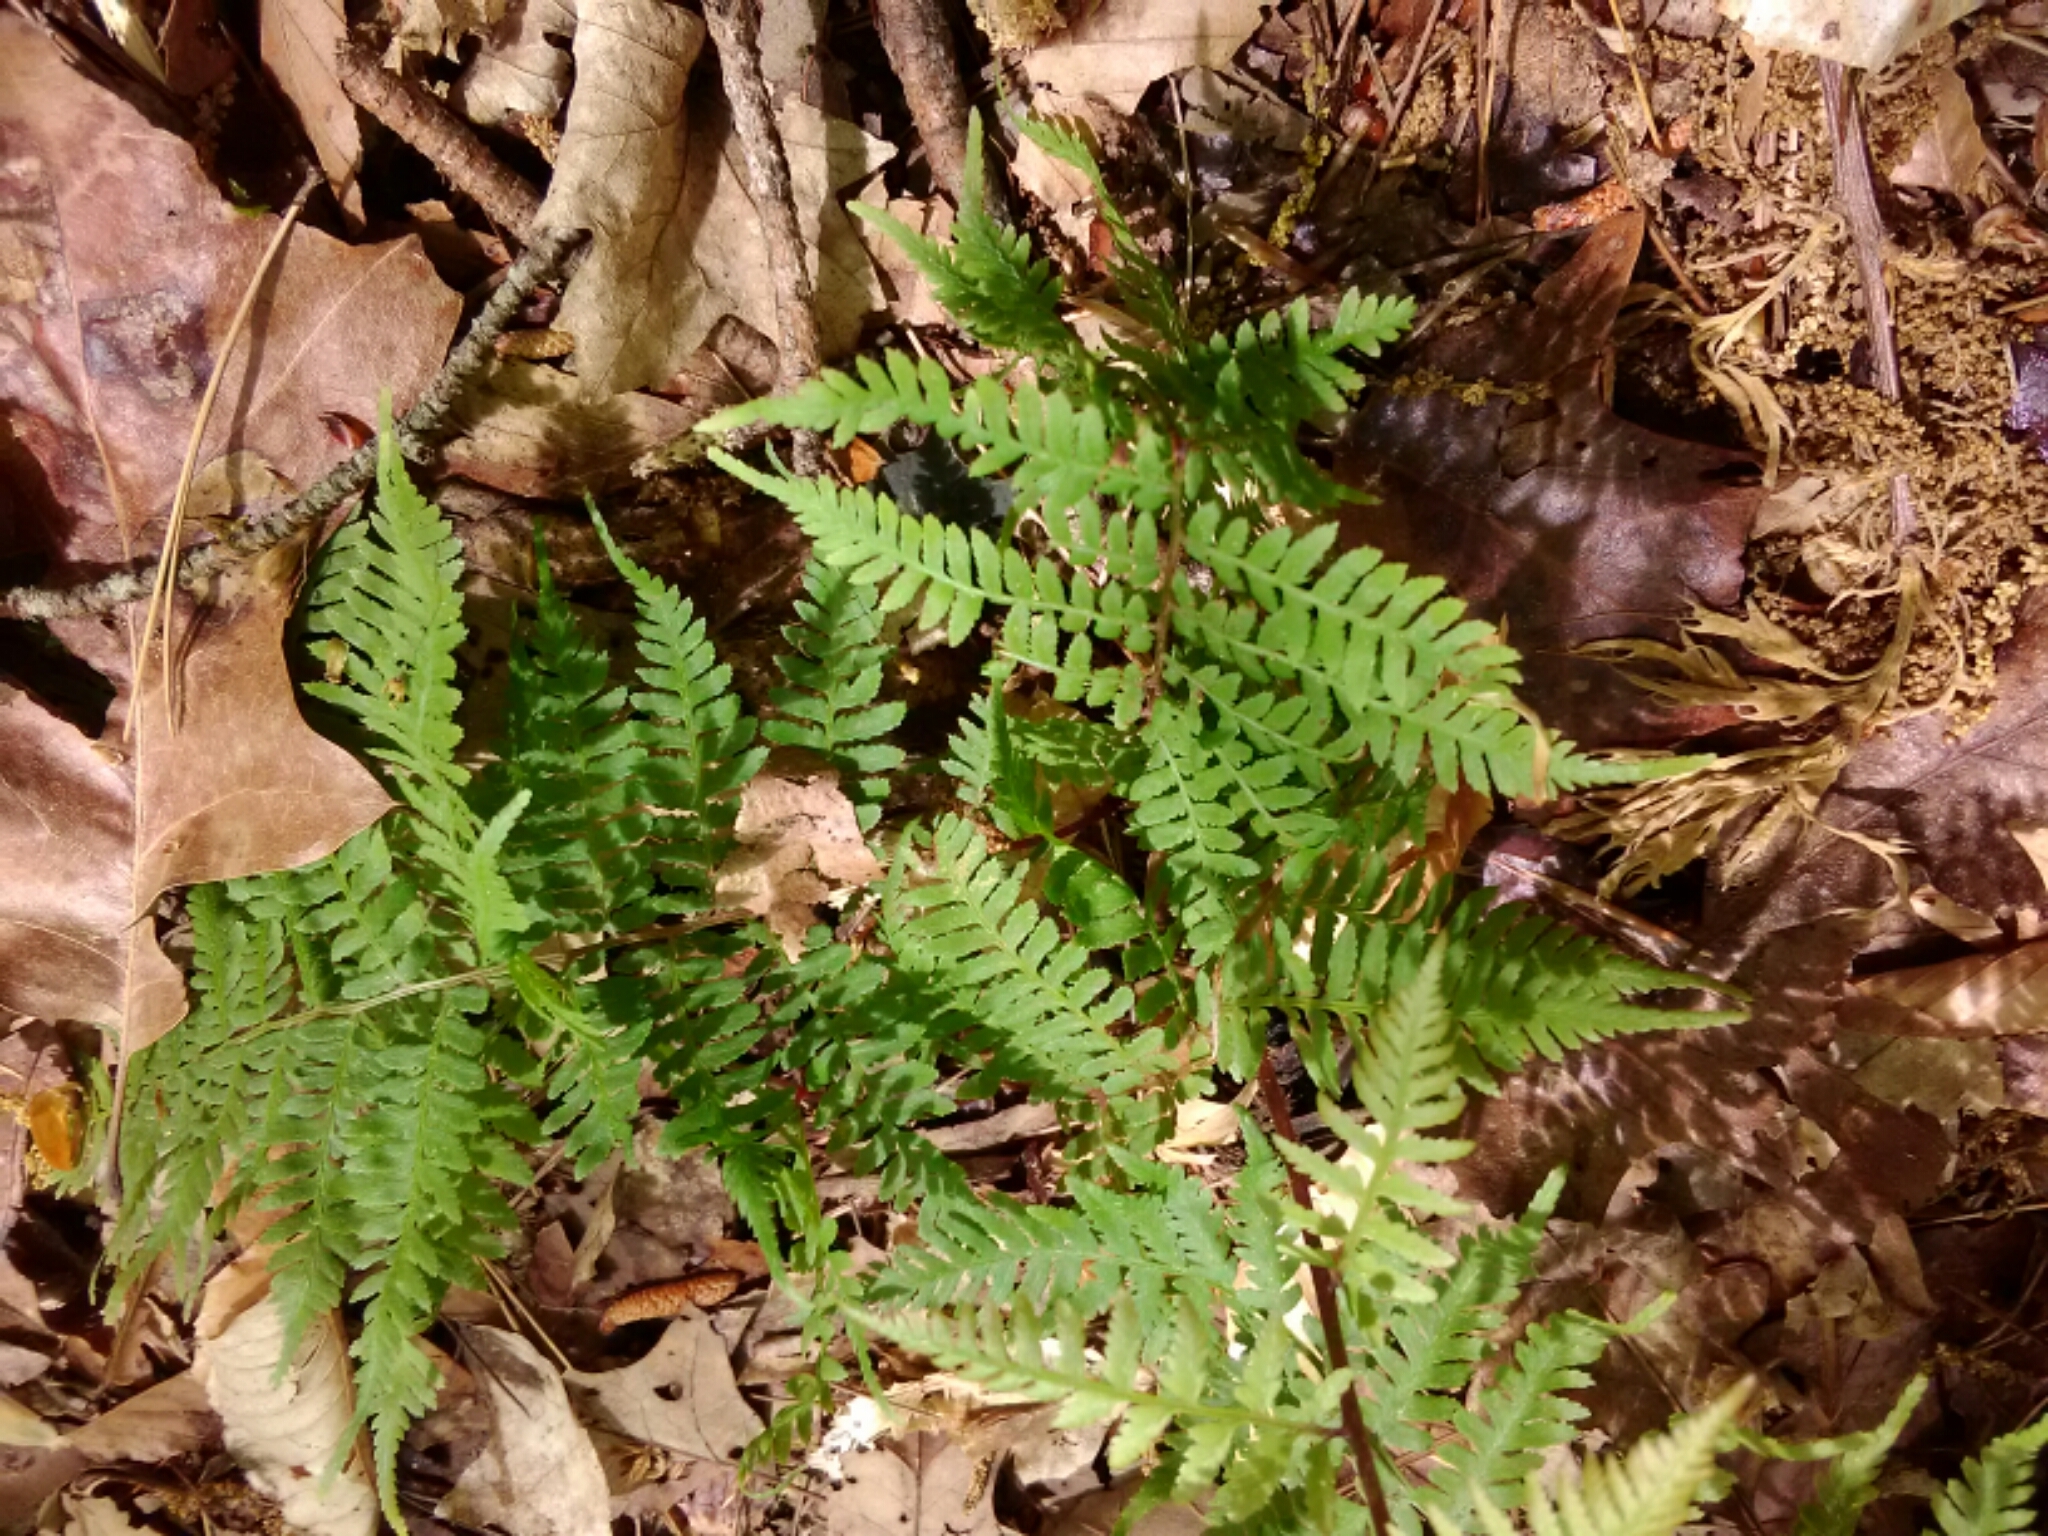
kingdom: Plantae
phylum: Tracheophyta
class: Polypodiopsida
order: Polypodiales
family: Athyriaceae
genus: Athyrium
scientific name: Athyrium asplenioides
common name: Southern lady fern
